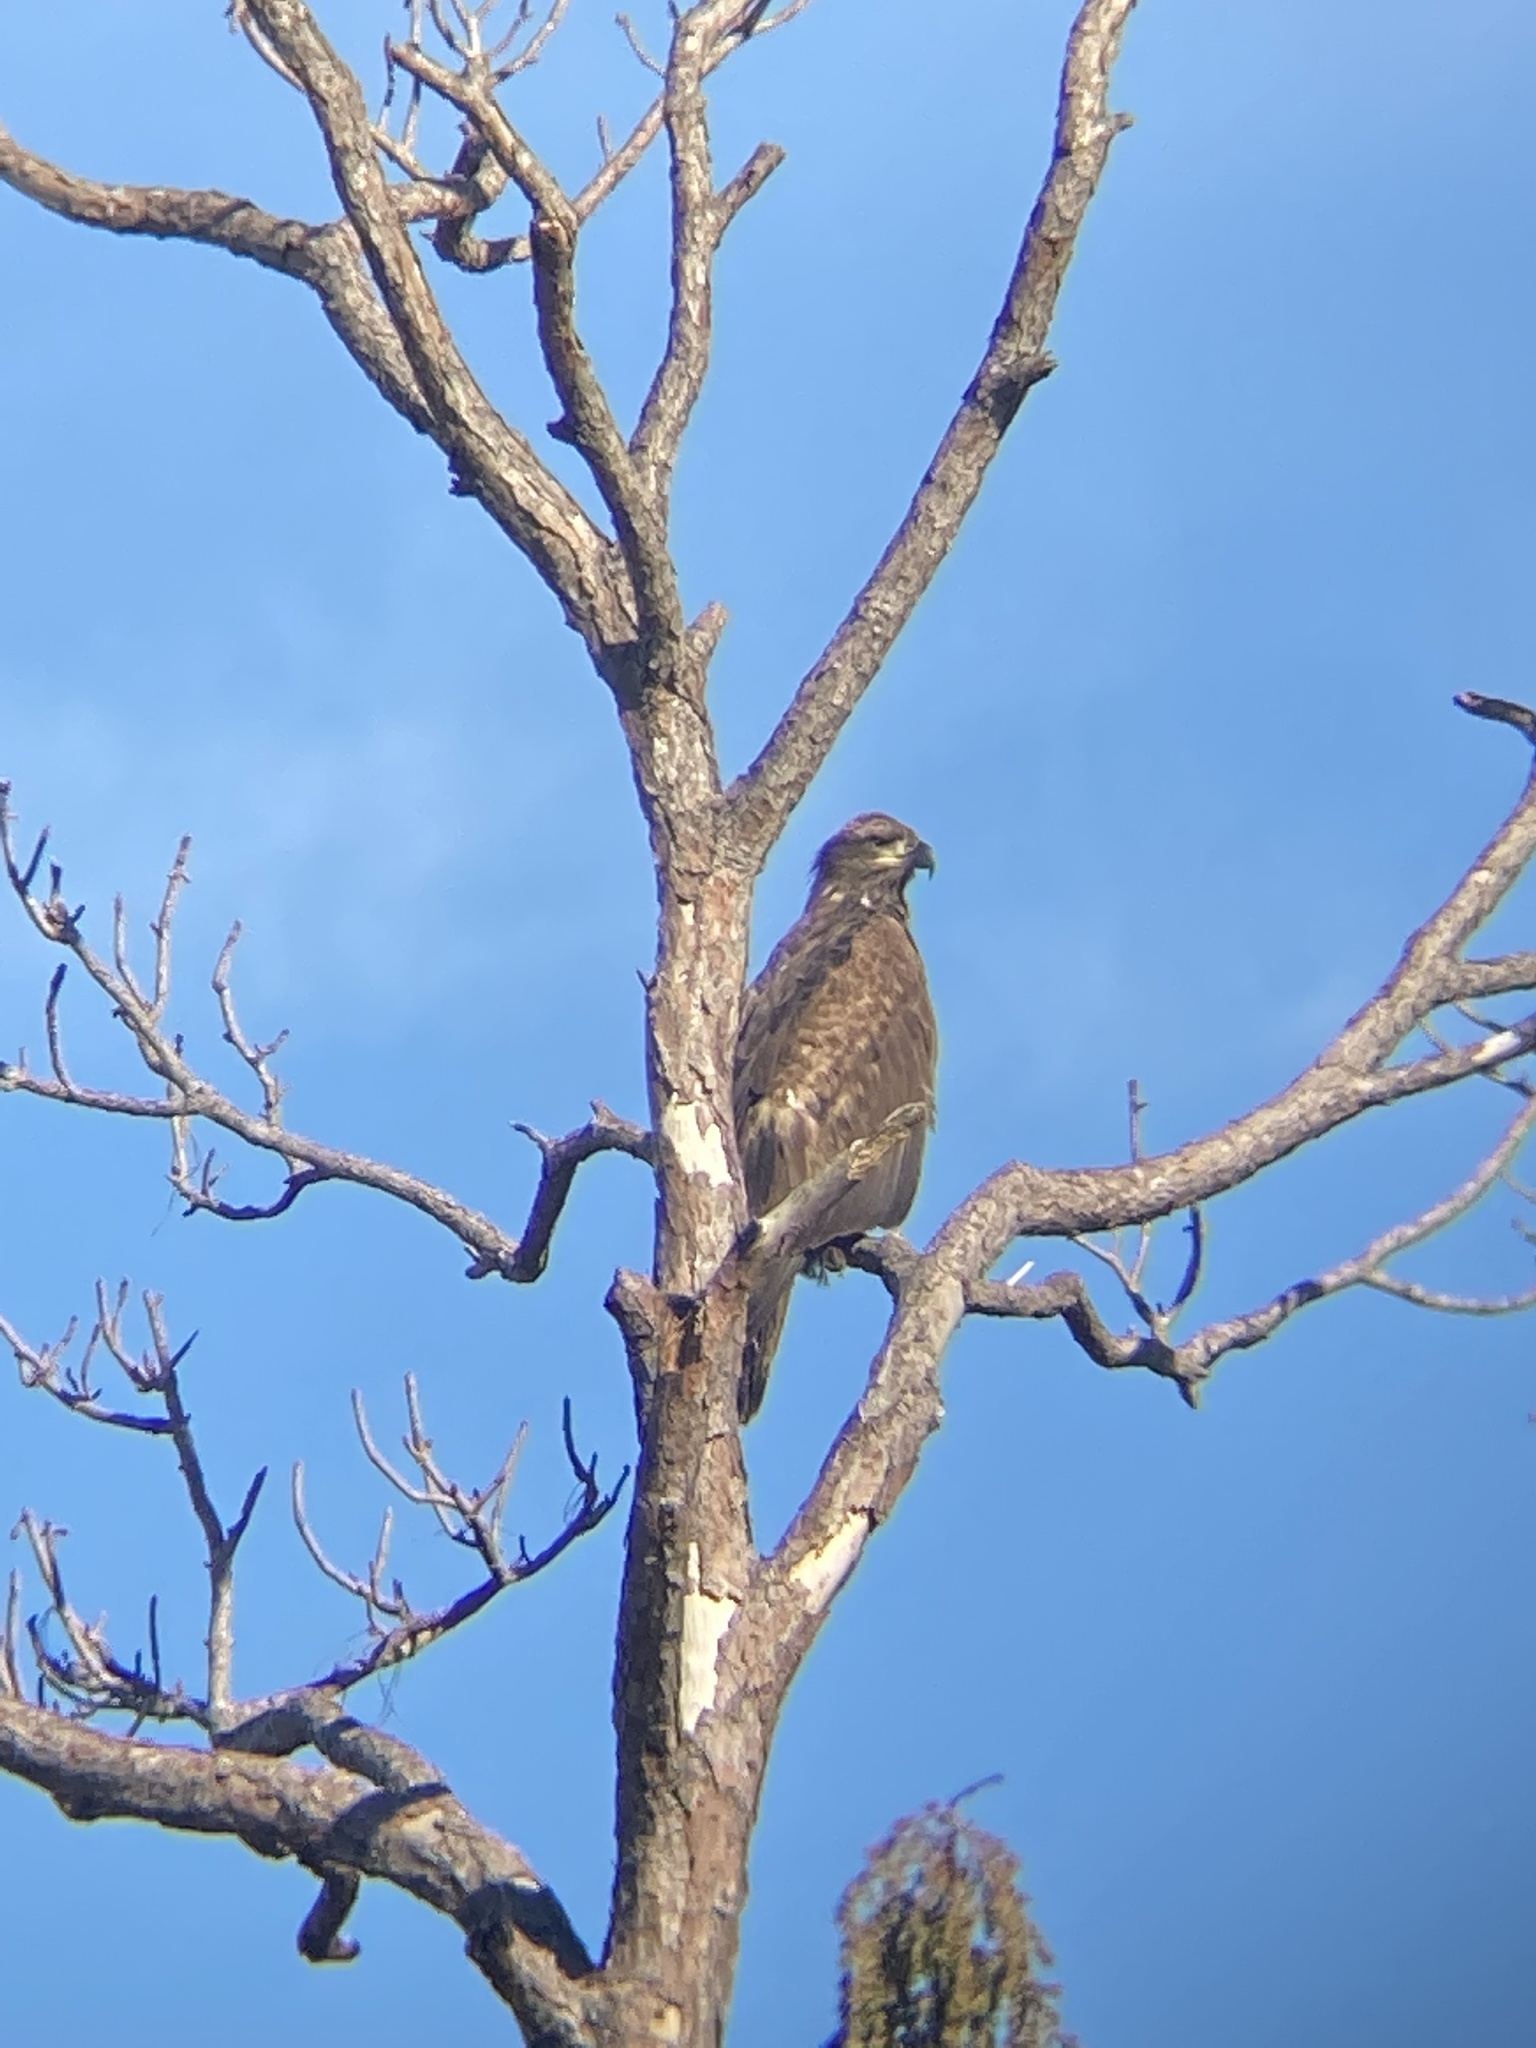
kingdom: Animalia
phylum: Chordata
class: Aves
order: Accipitriformes
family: Accipitridae
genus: Haliaeetus
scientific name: Haliaeetus leucocephalus
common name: Bald eagle
